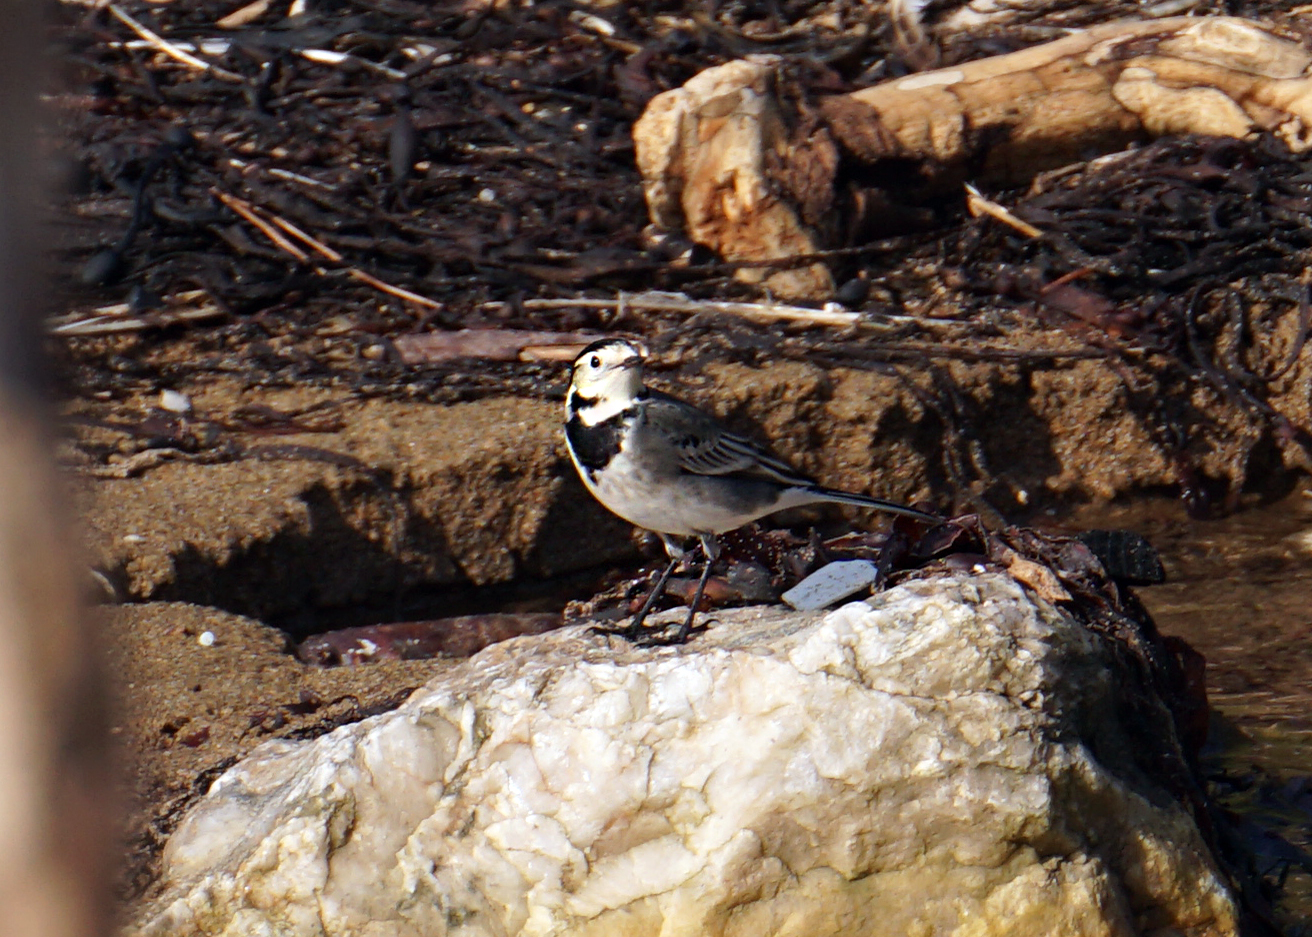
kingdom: Animalia
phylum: Chordata
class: Aves
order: Passeriformes
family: Motacillidae
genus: Motacilla
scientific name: Motacilla alba
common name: White wagtail
